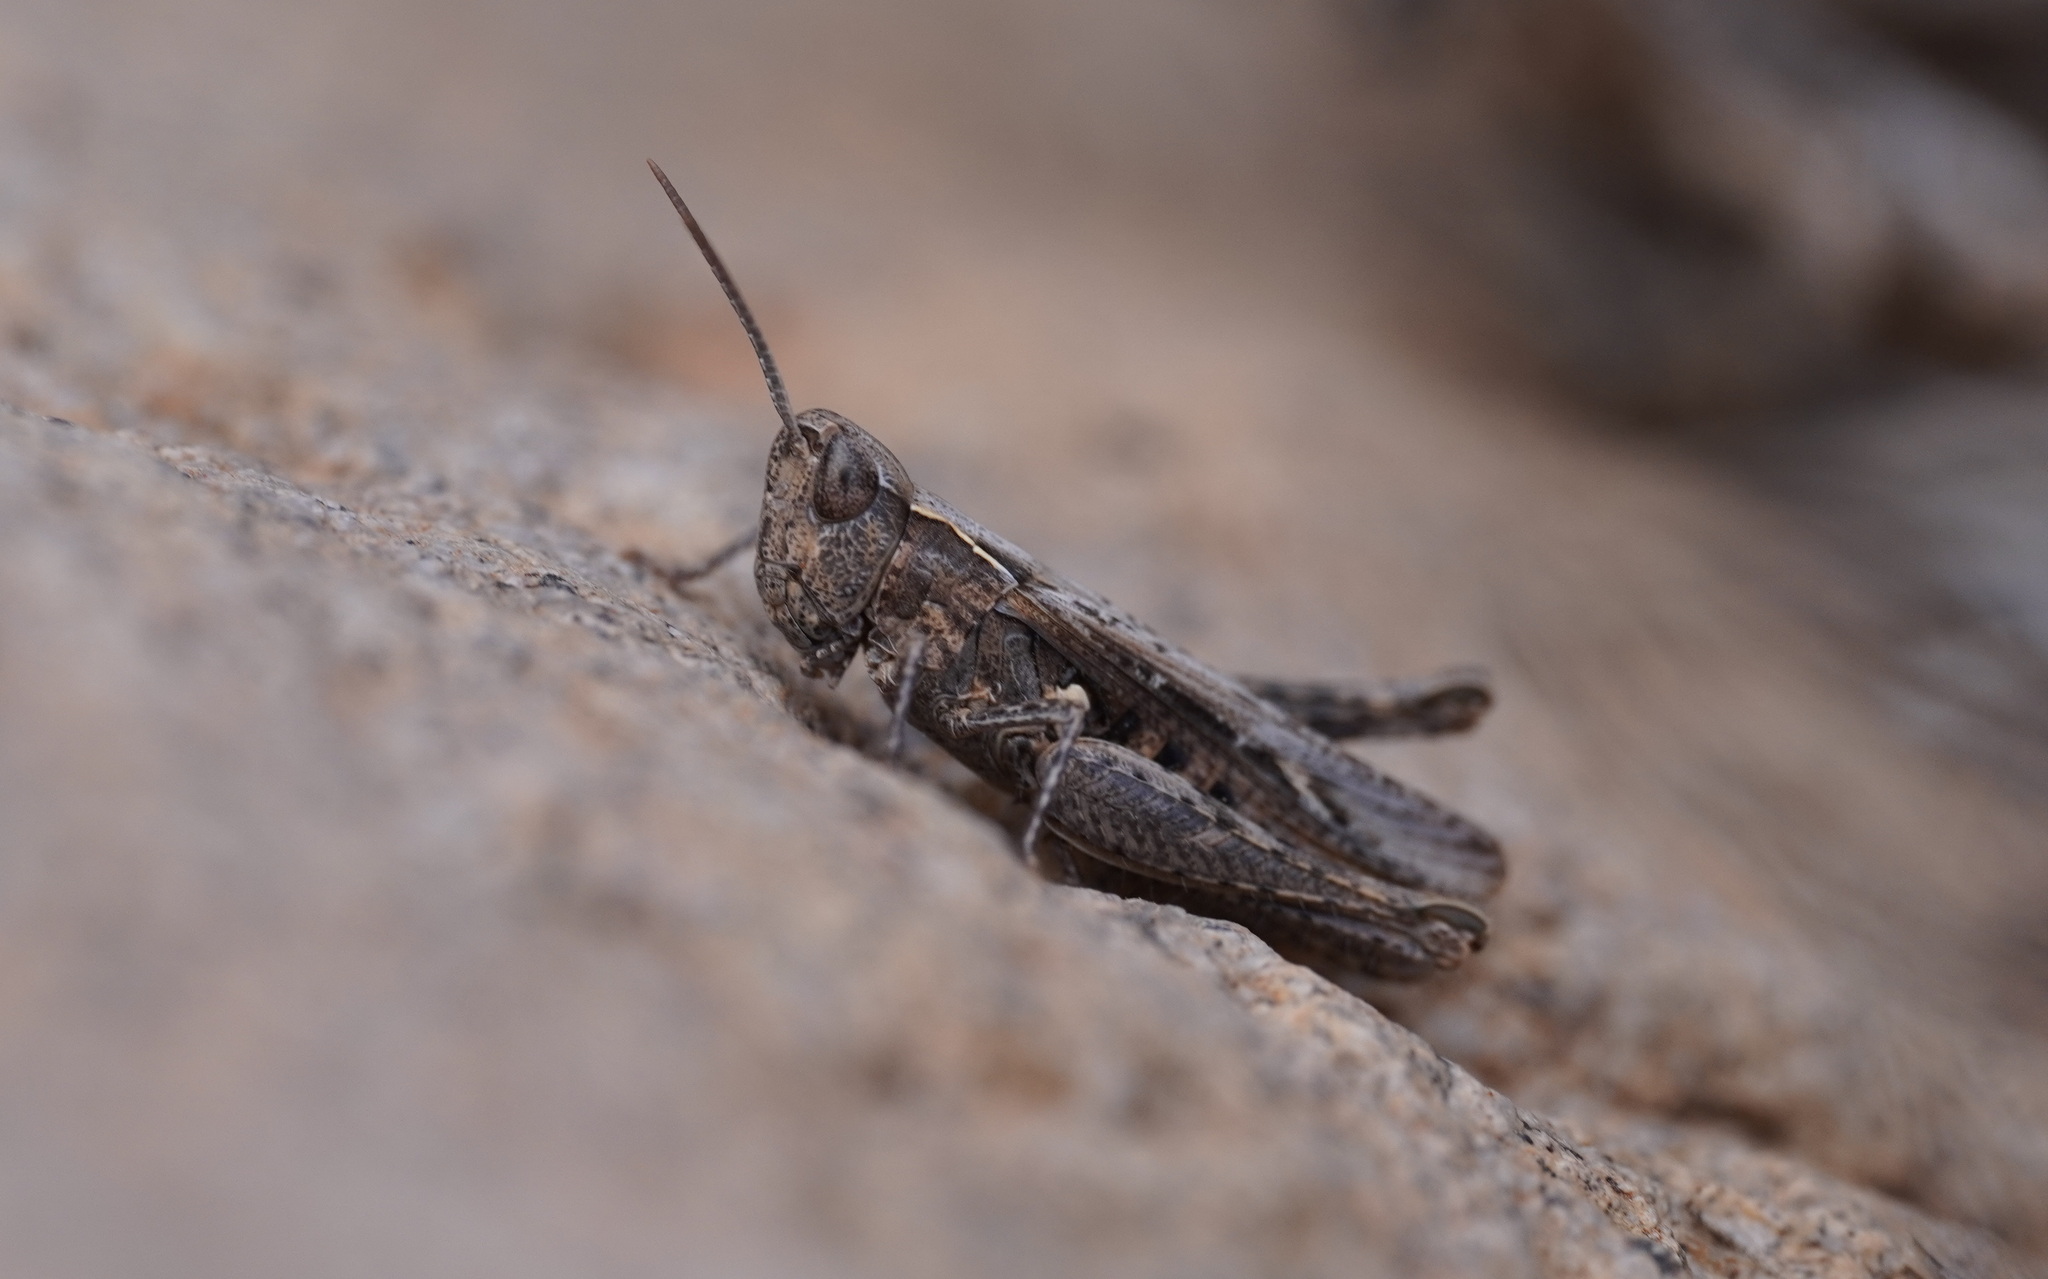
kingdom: Animalia
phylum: Arthropoda
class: Insecta
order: Orthoptera
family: Acrididae
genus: Omocestus
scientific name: Omocestus simonyi
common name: Purpurarian grasshopper
